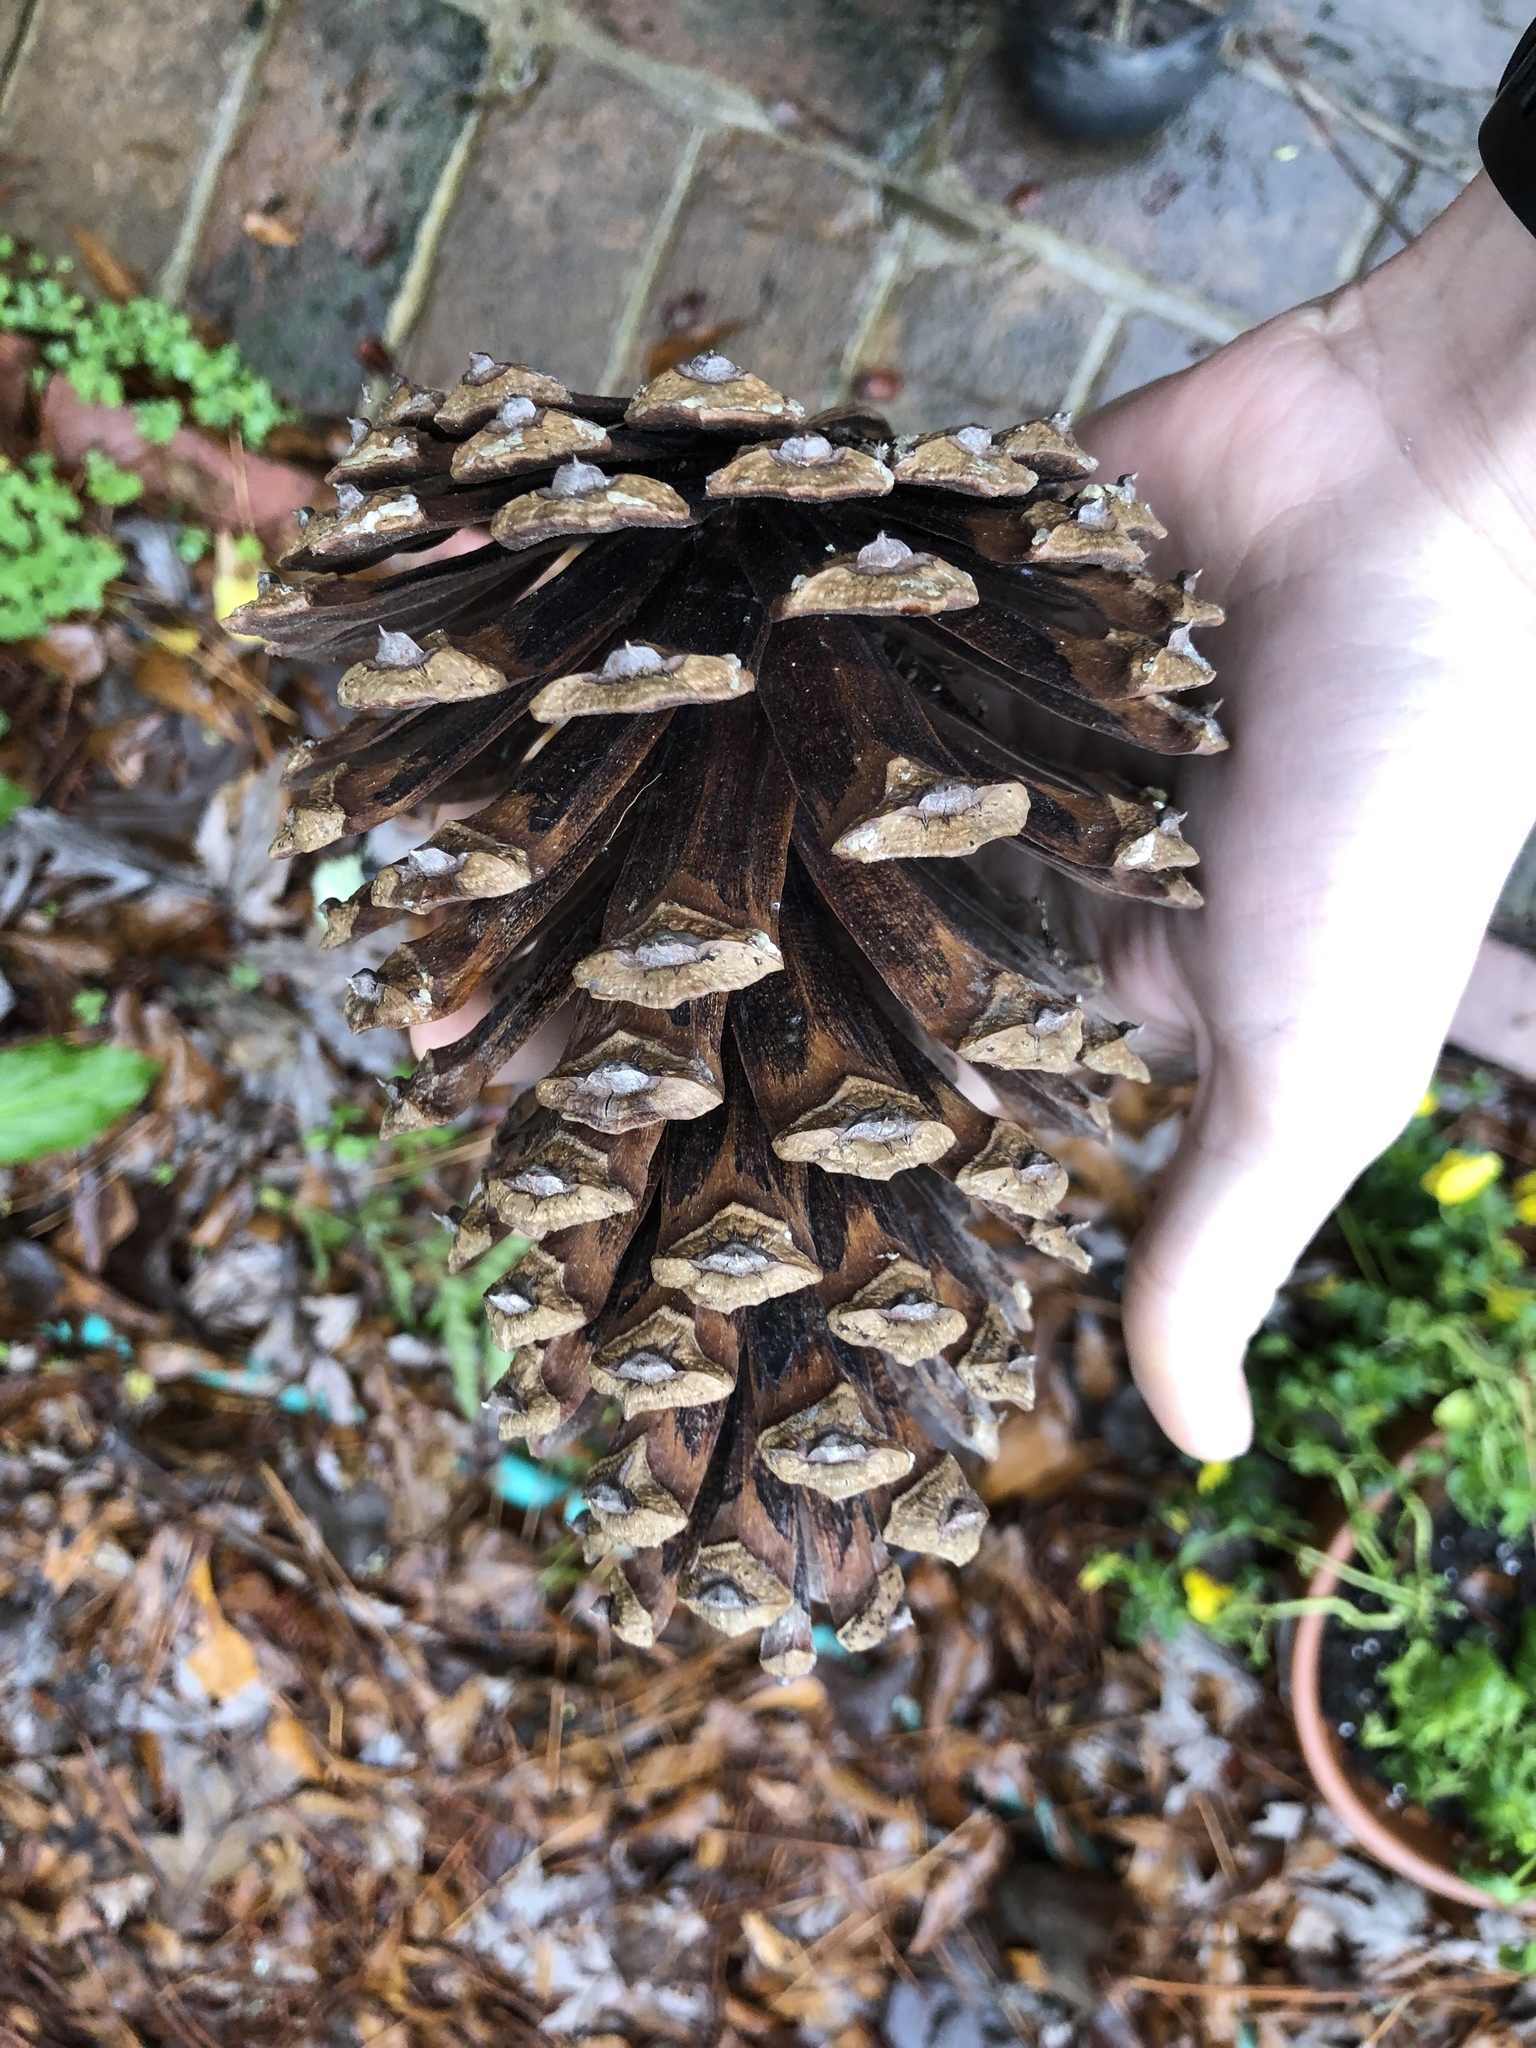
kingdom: Plantae
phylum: Tracheophyta
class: Pinopsida
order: Pinales
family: Pinaceae
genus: Pinus
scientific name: Pinus palustris
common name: Longleaf pine
